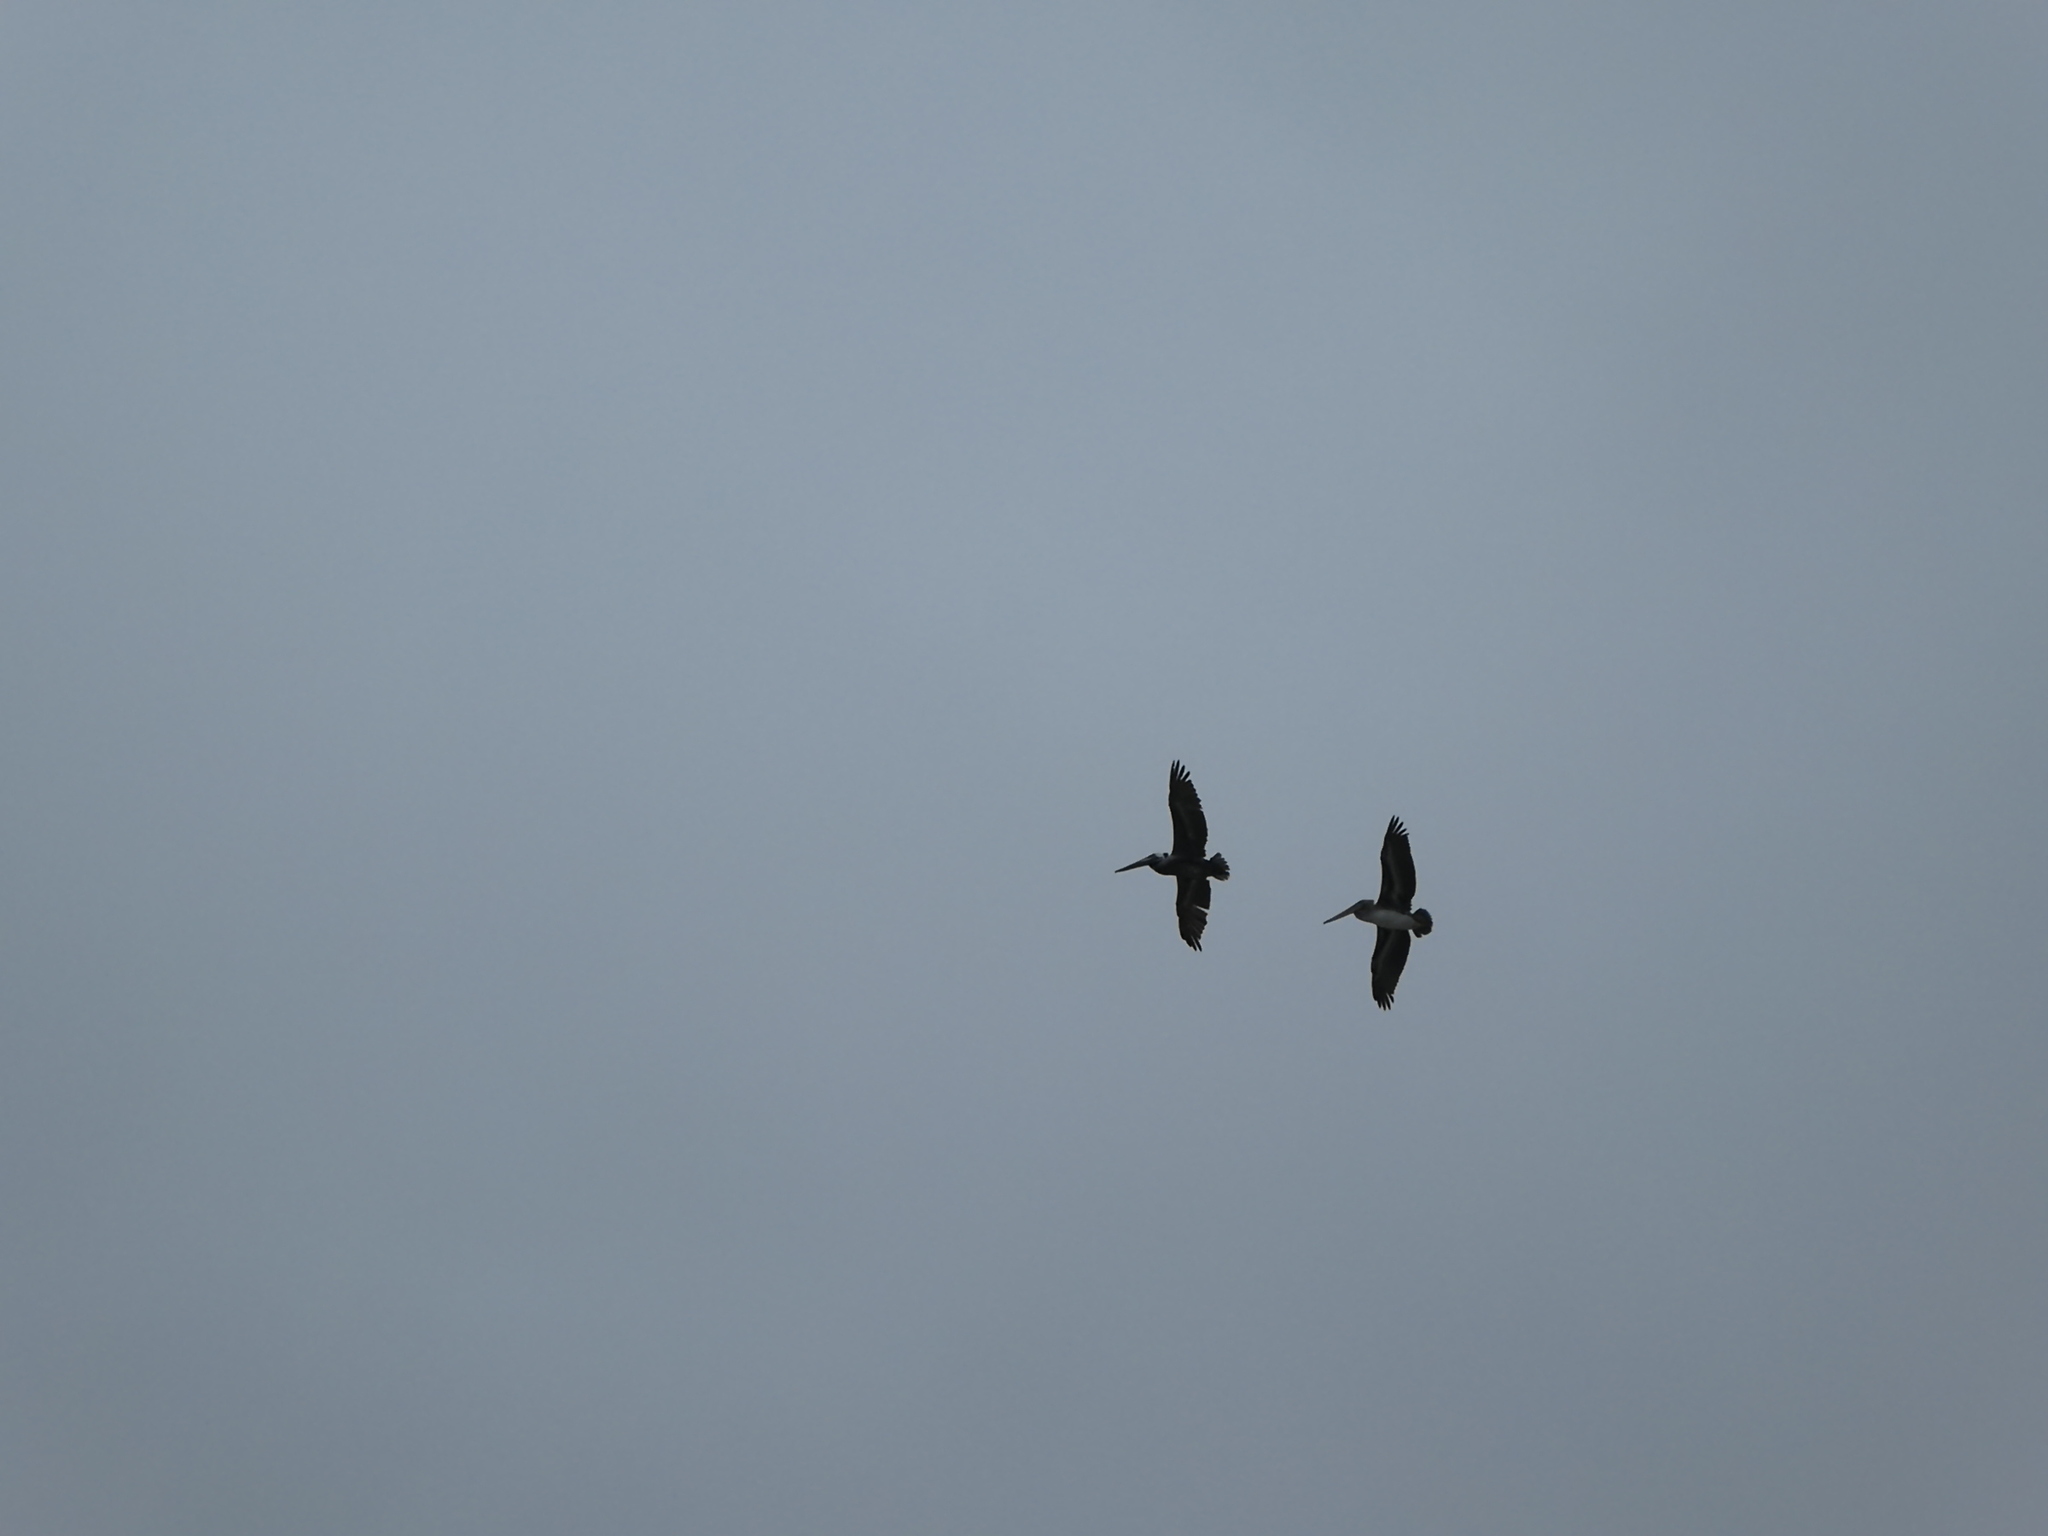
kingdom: Animalia
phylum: Chordata
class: Aves
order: Pelecaniformes
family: Pelecanidae
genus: Pelecanus
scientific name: Pelecanus occidentalis
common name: Brown pelican
